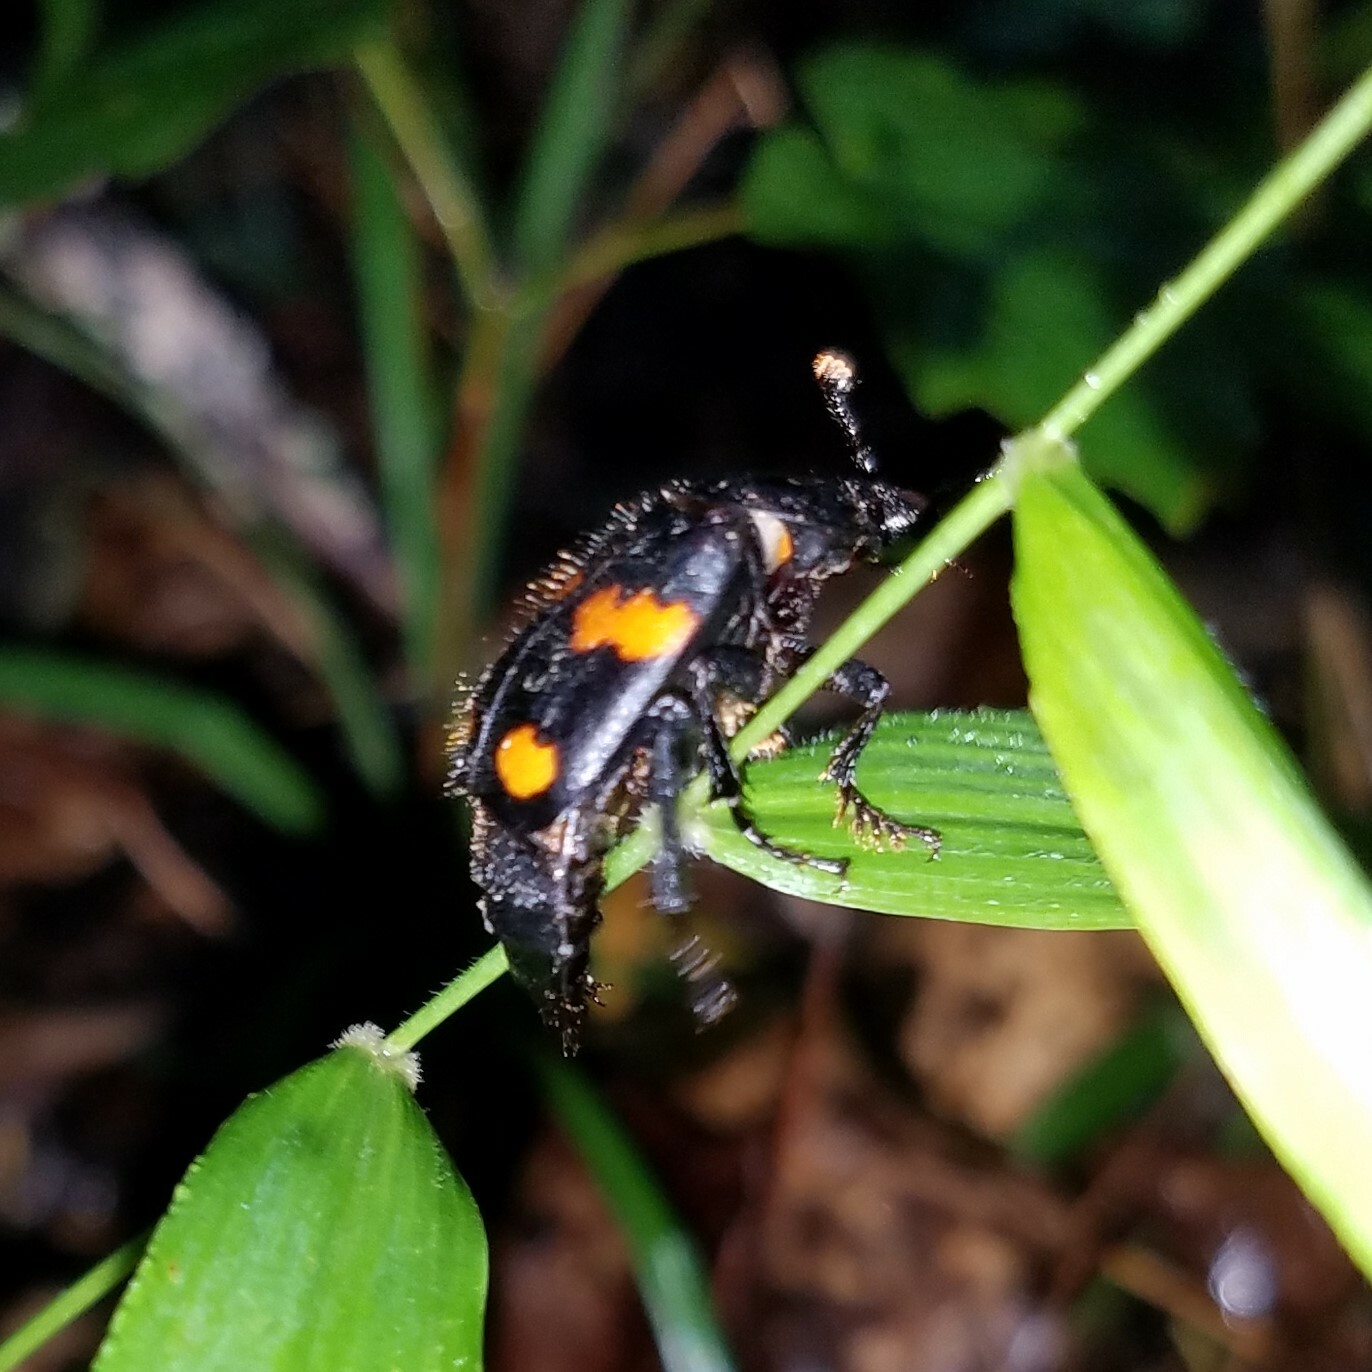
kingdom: Animalia
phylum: Arthropoda
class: Insecta
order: Coleoptera
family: Staphylinidae
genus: Nicrophorus
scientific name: Nicrophorus orbicollis
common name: Roundneck sexton beetle
